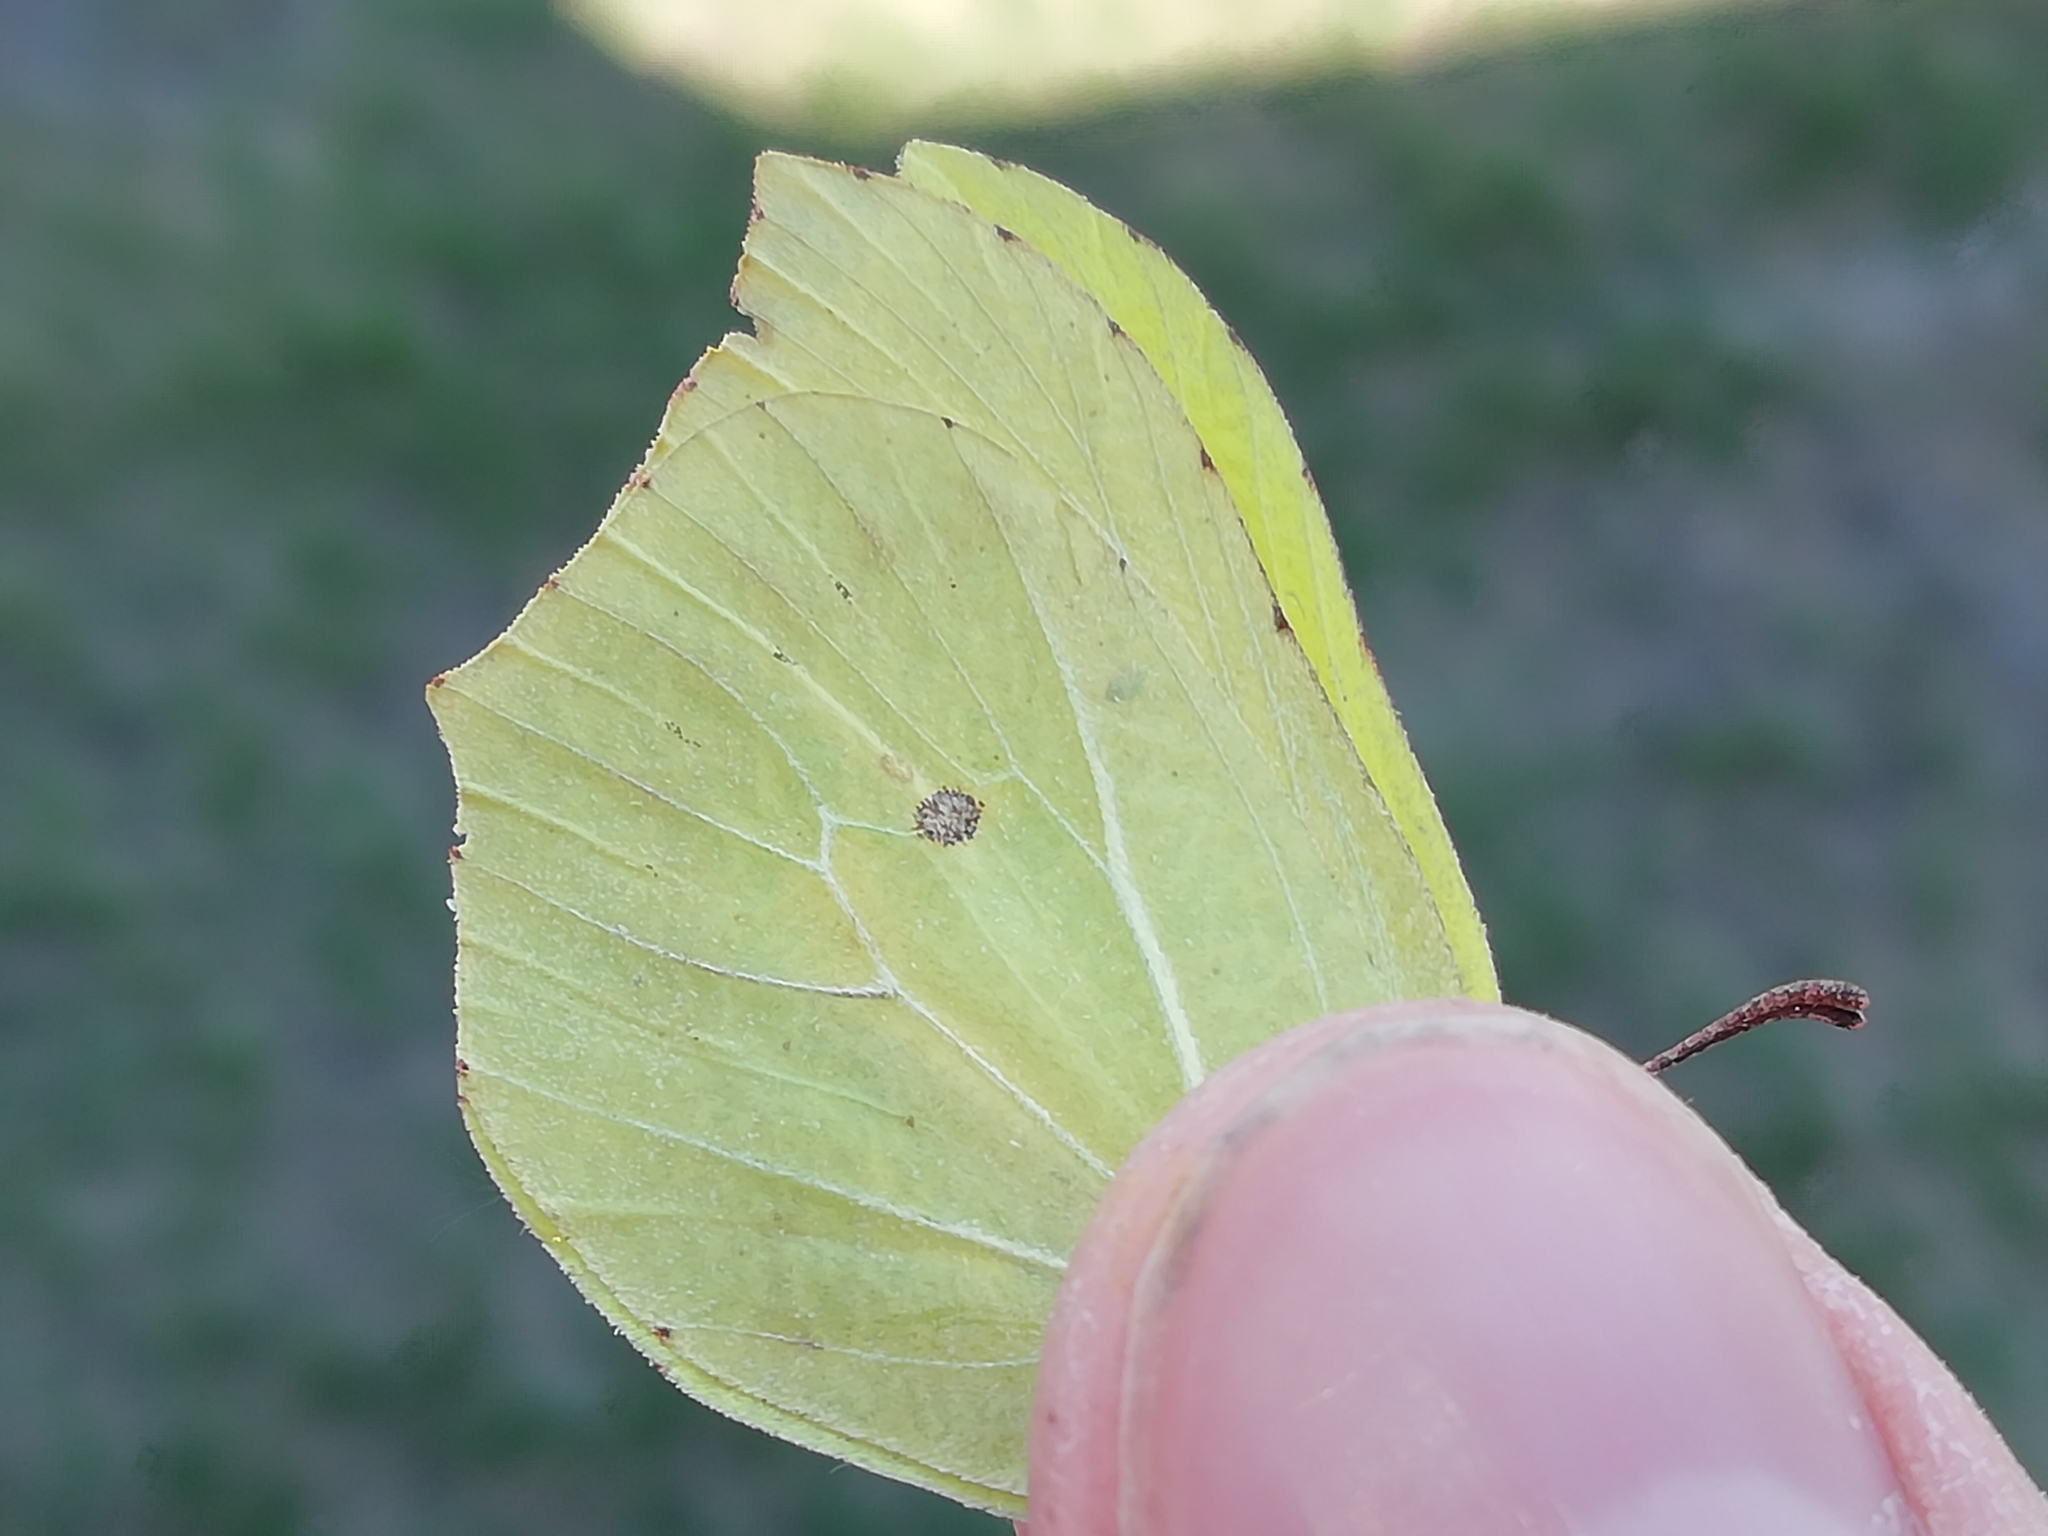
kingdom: Animalia
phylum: Arthropoda
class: Insecta
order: Lepidoptera
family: Pieridae
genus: Gonepteryx
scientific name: Gonepteryx rhamni
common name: Brimstone
